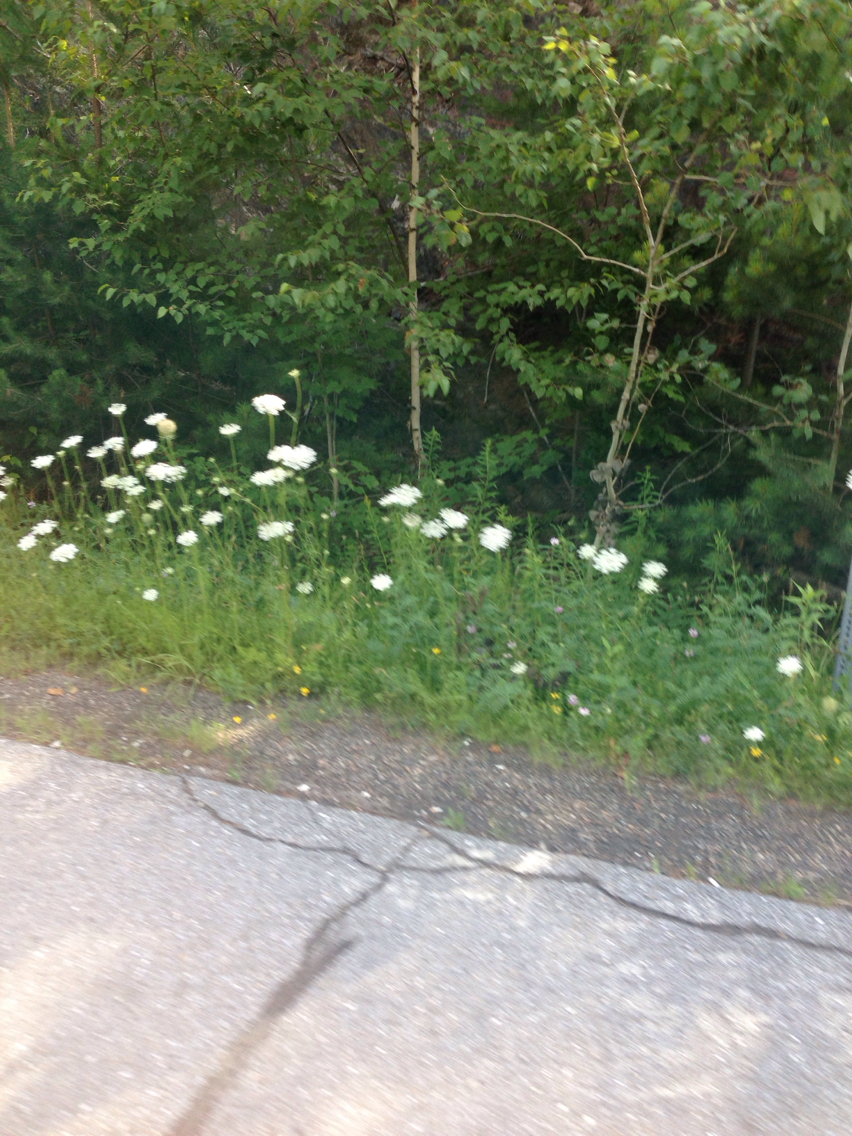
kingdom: Plantae
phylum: Tracheophyta
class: Magnoliopsida
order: Apiales
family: Apiaceae
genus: Daucus
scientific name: Daucus carota
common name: Wild carrot
